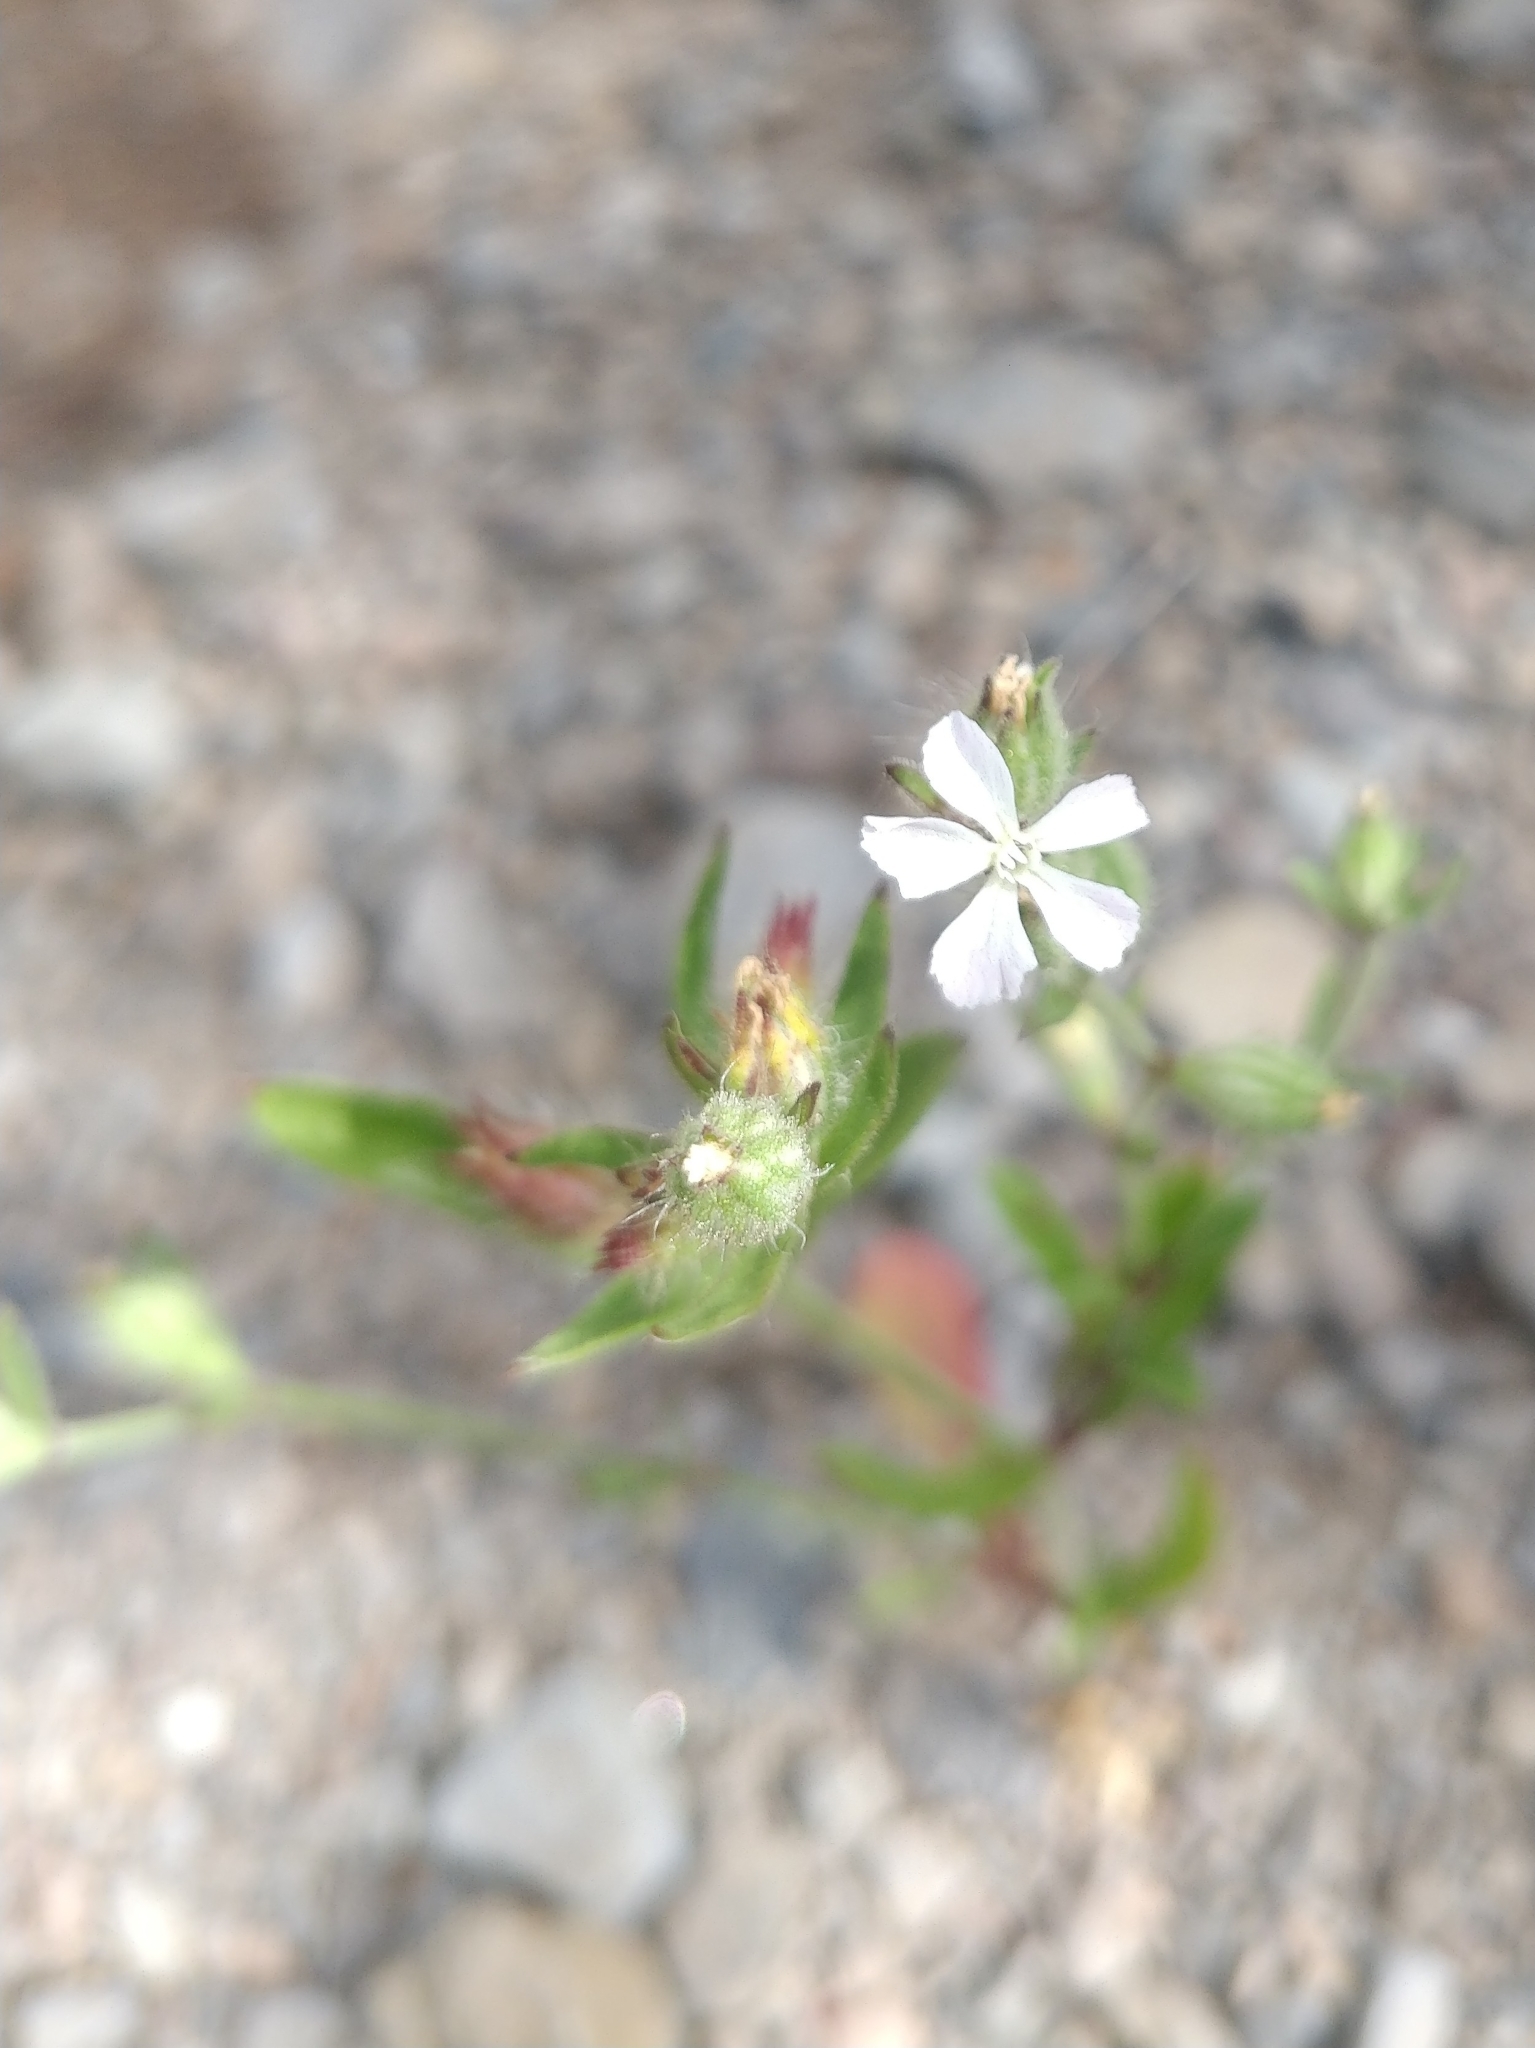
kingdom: Plantae
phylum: Tracheophyta
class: Magnoliopsida
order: Caryophyllales
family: Caryophyllaceae
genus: Silene
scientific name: Silene gallica
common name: Small-flowered catchfly
